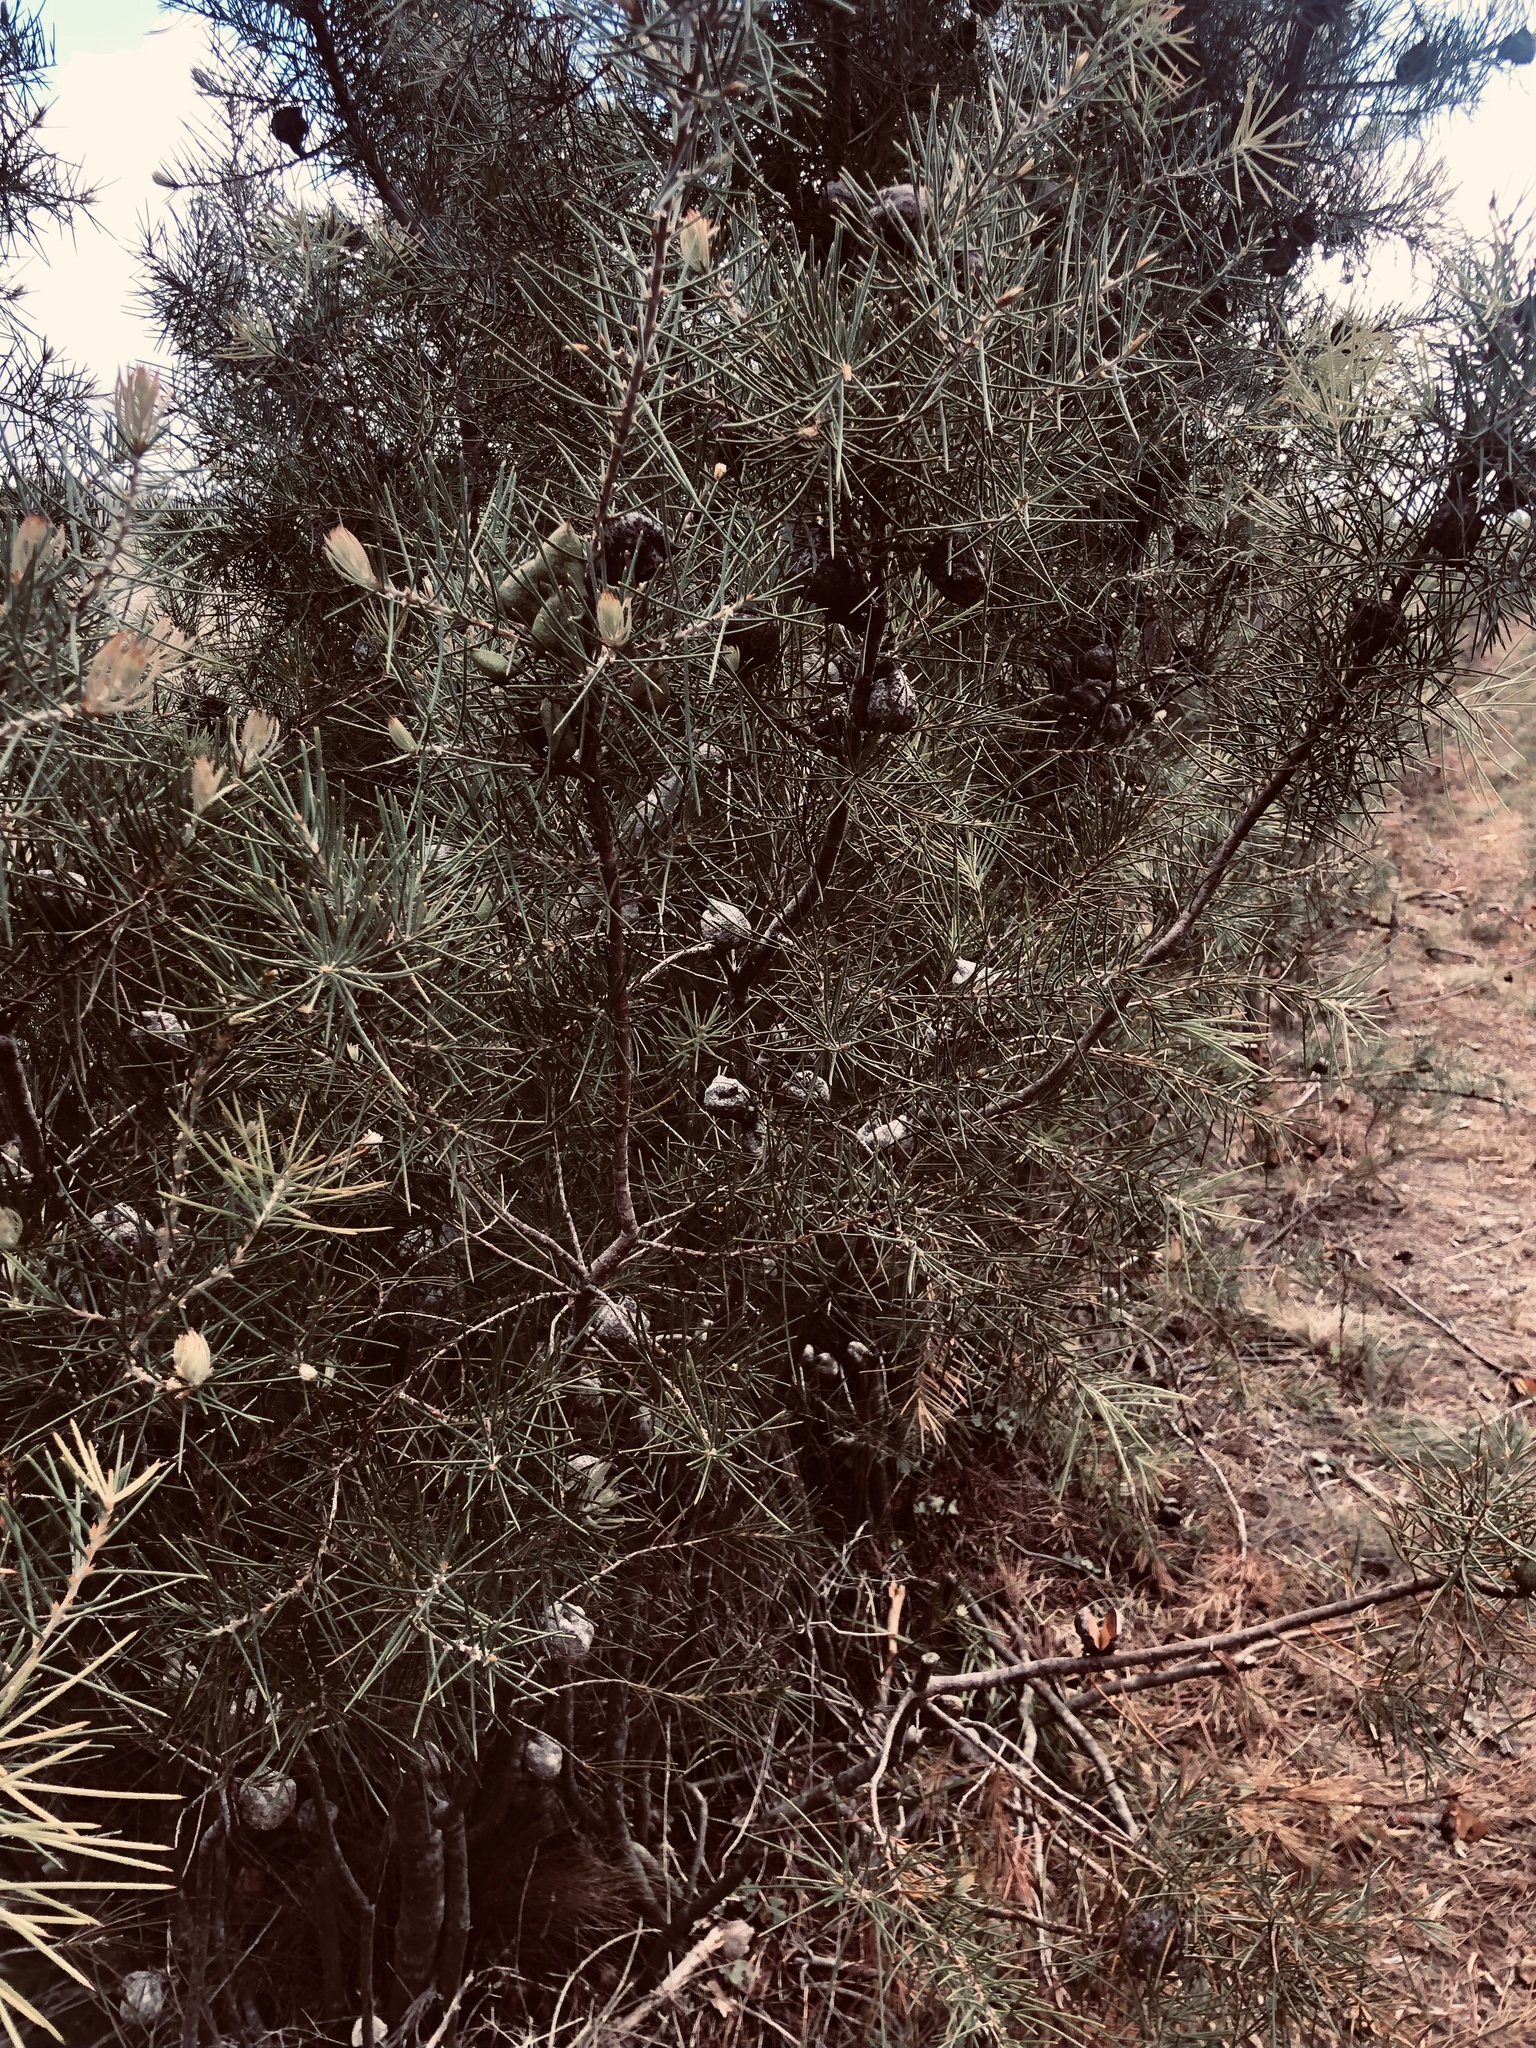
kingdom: Plantae
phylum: Tracheophyta
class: Magnoliopsida
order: Proteales
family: Proteaceae
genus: Hakea
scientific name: Hakea gibbosa
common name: Rock hakea
